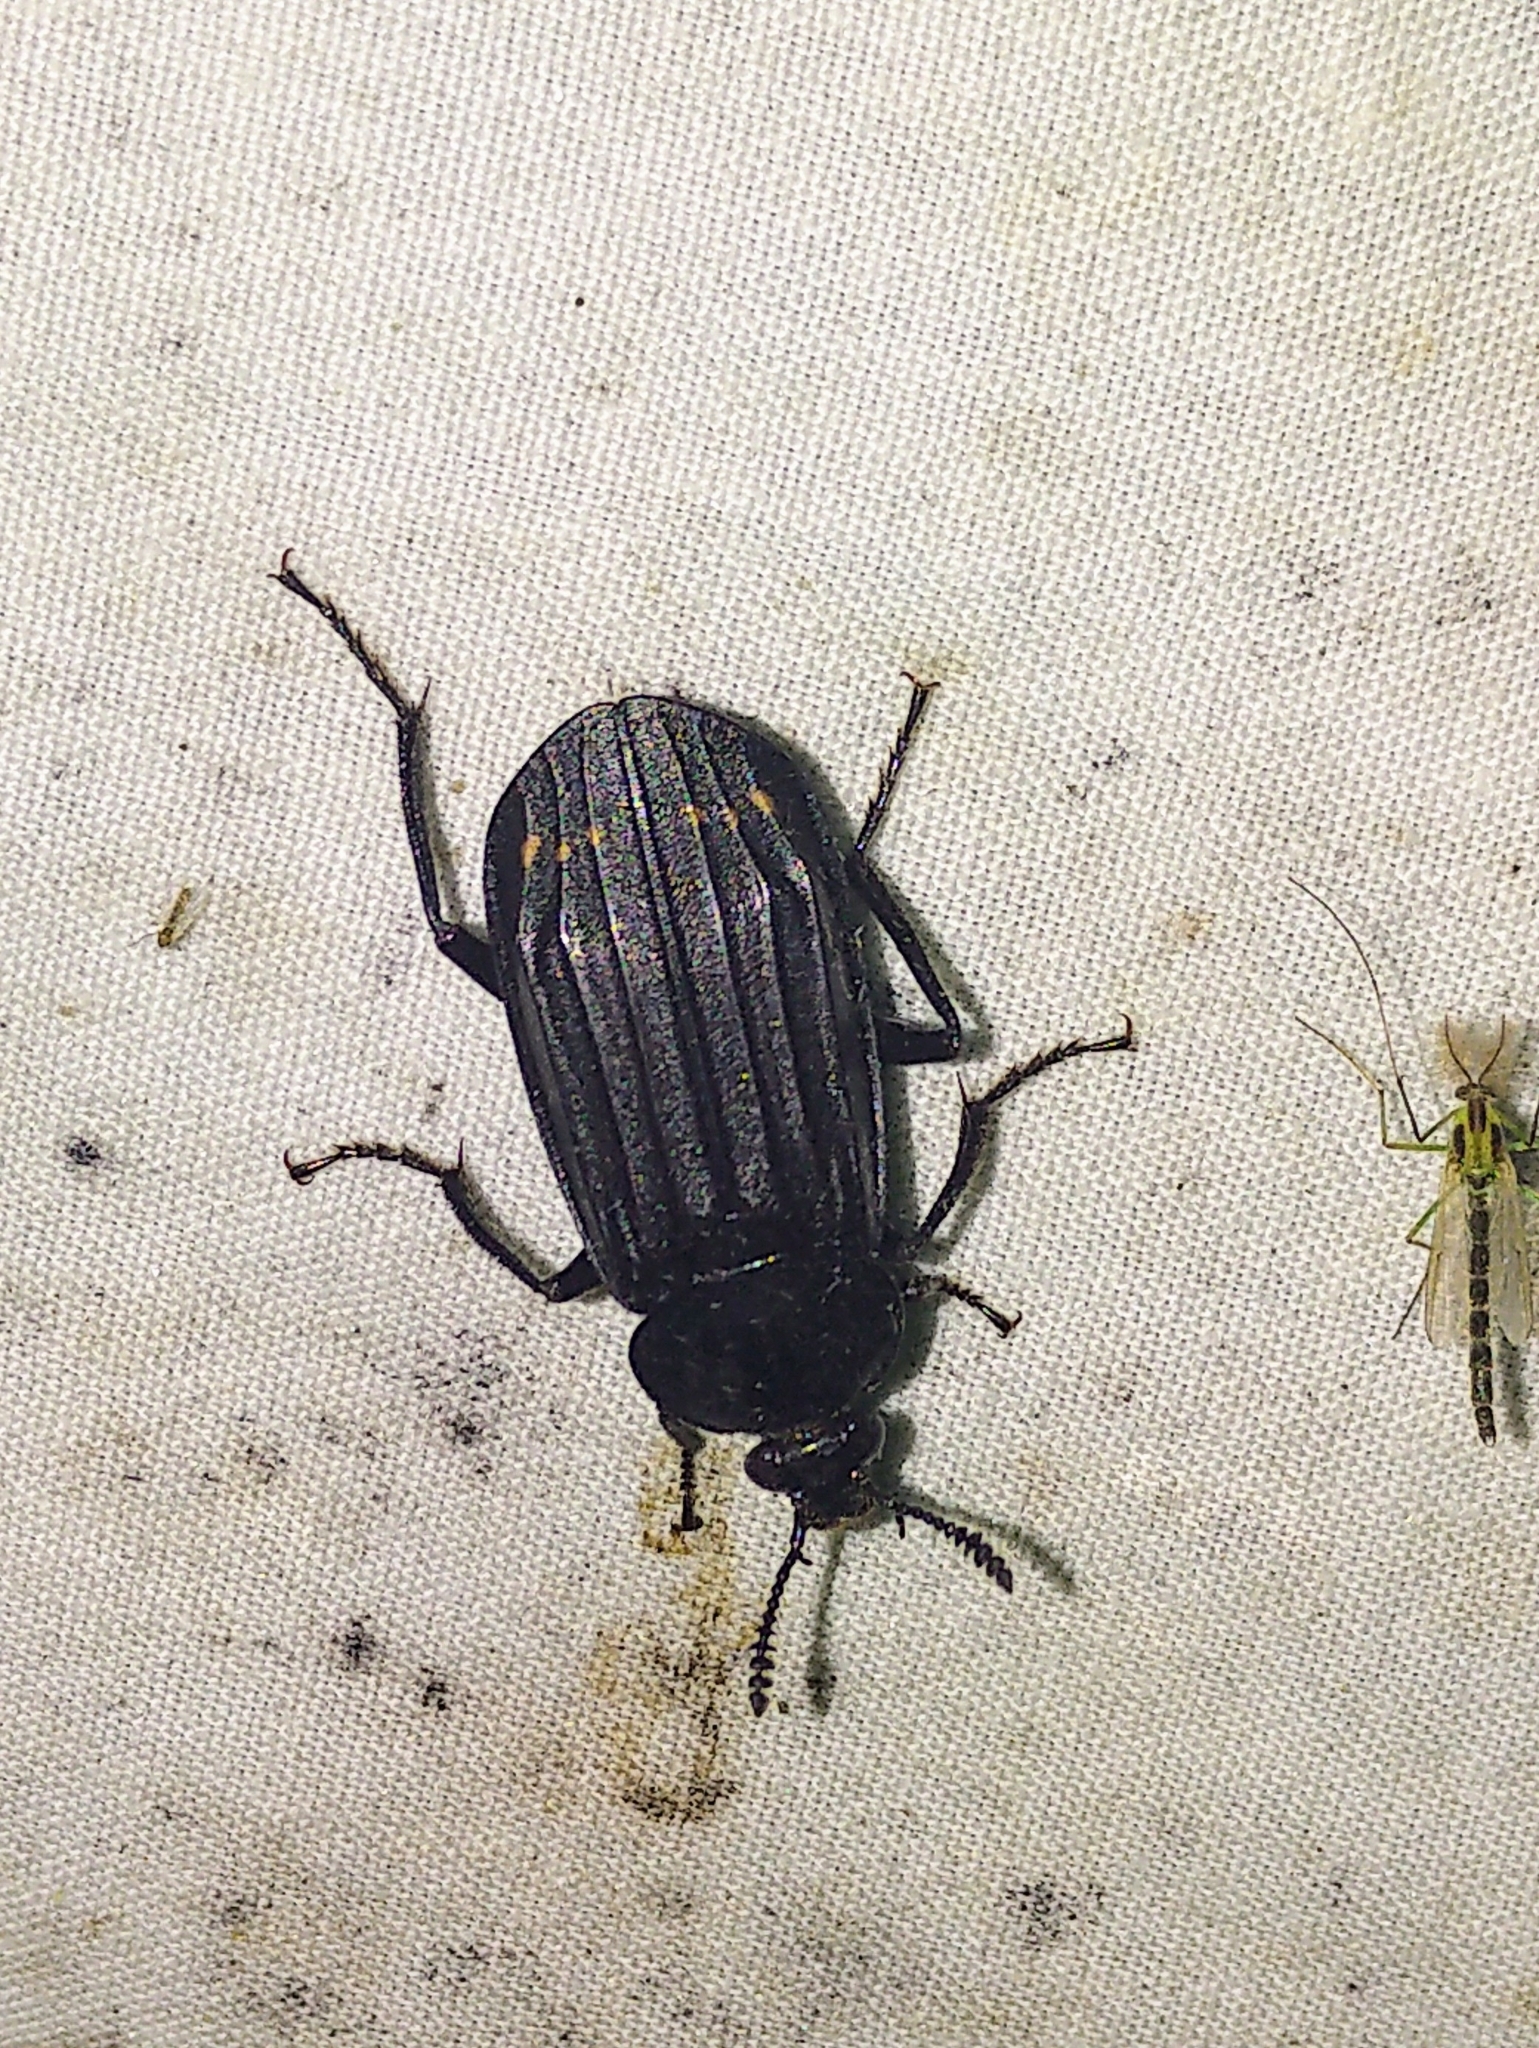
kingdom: Animalia
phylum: Arthropoda
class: Insecta
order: Coleoptera
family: Staphylinidae
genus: Necrodes
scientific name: Necrodes surinamensis
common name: Red-lined carrion beetle
